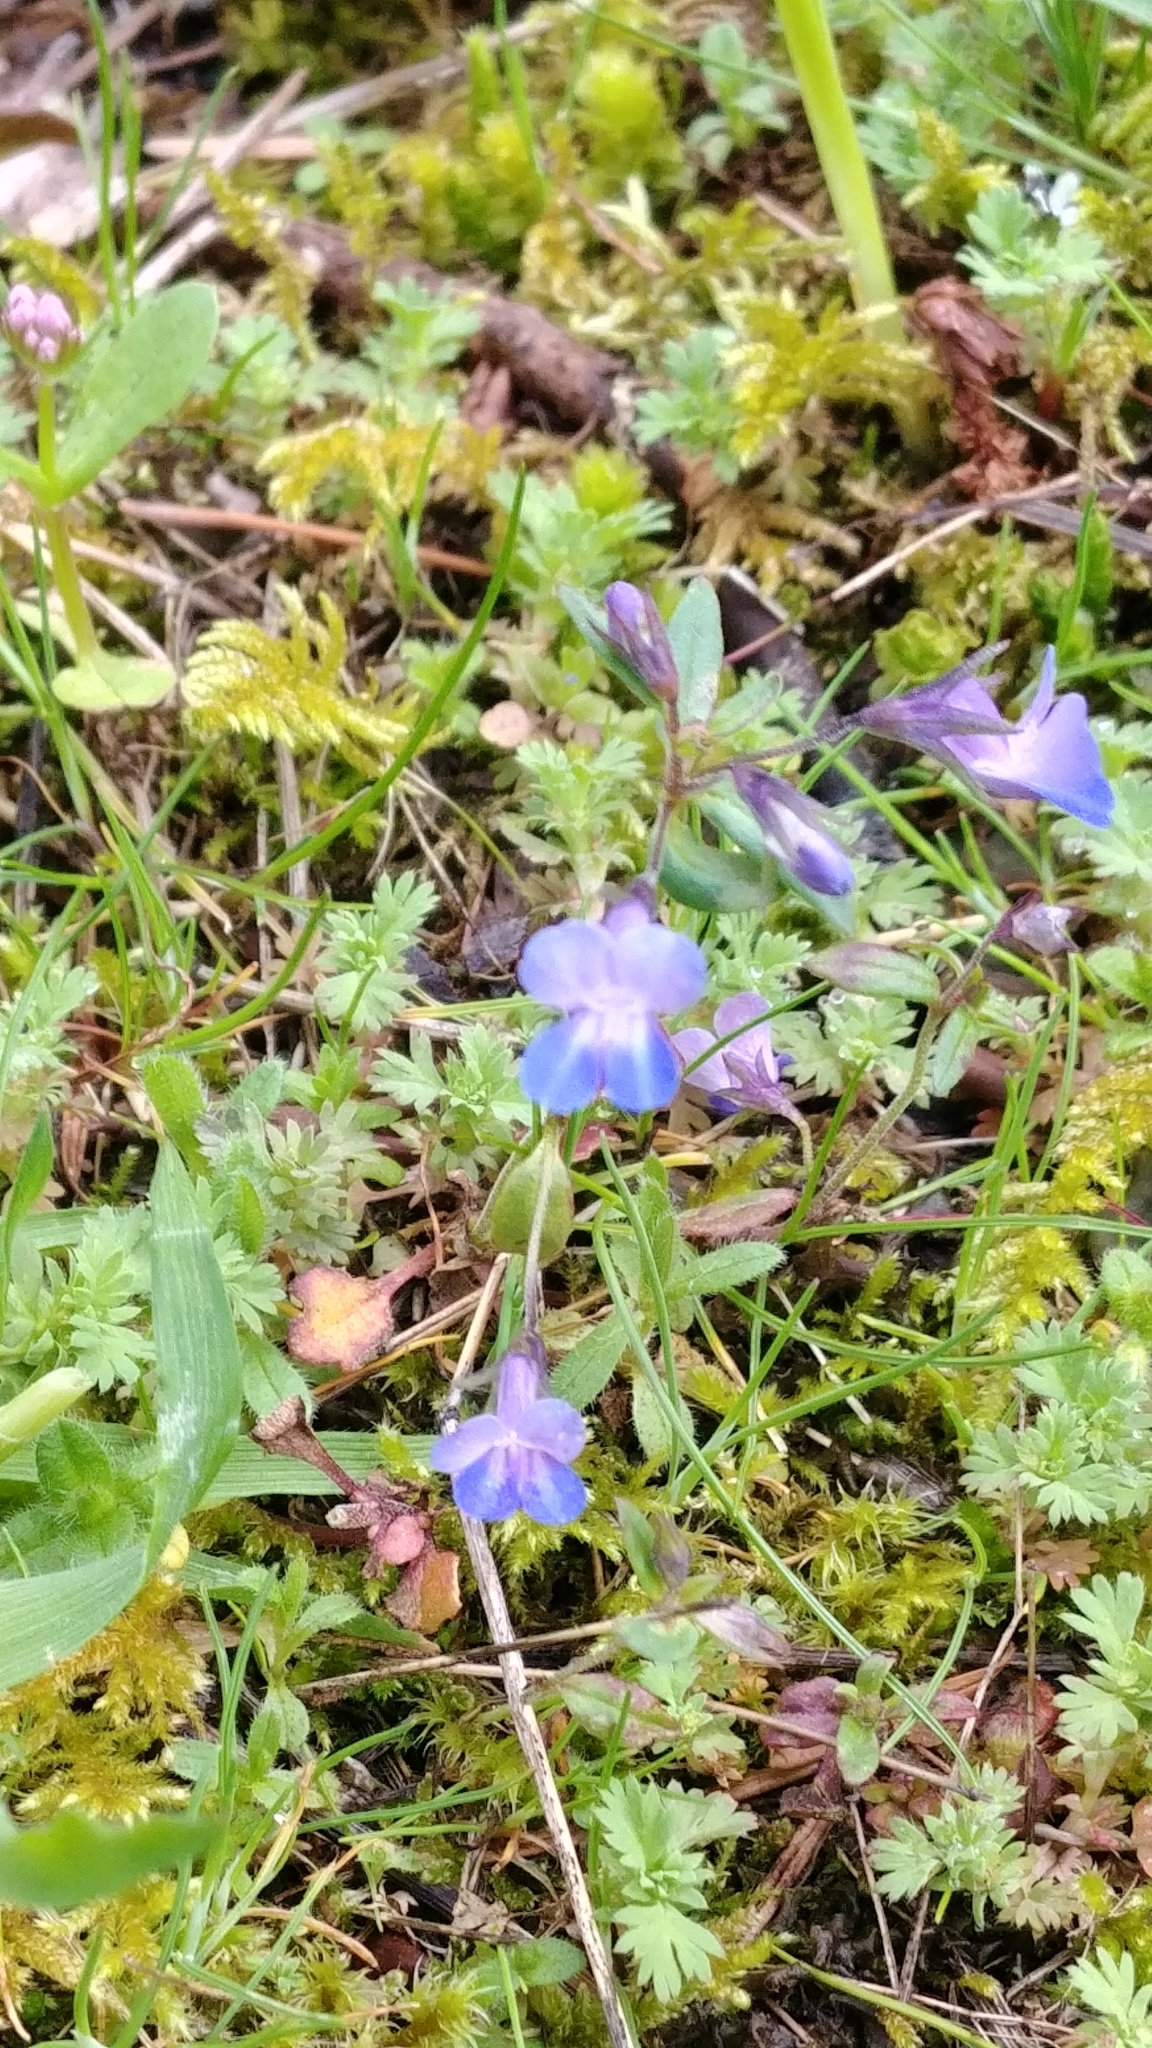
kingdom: Plantae
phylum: Tracheophyta
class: Magnoliopsida
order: Lamiales
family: Plantaginaceae
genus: Collinsia
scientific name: Collinsia grandiflora
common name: Large-flower blue-eyed-mary
